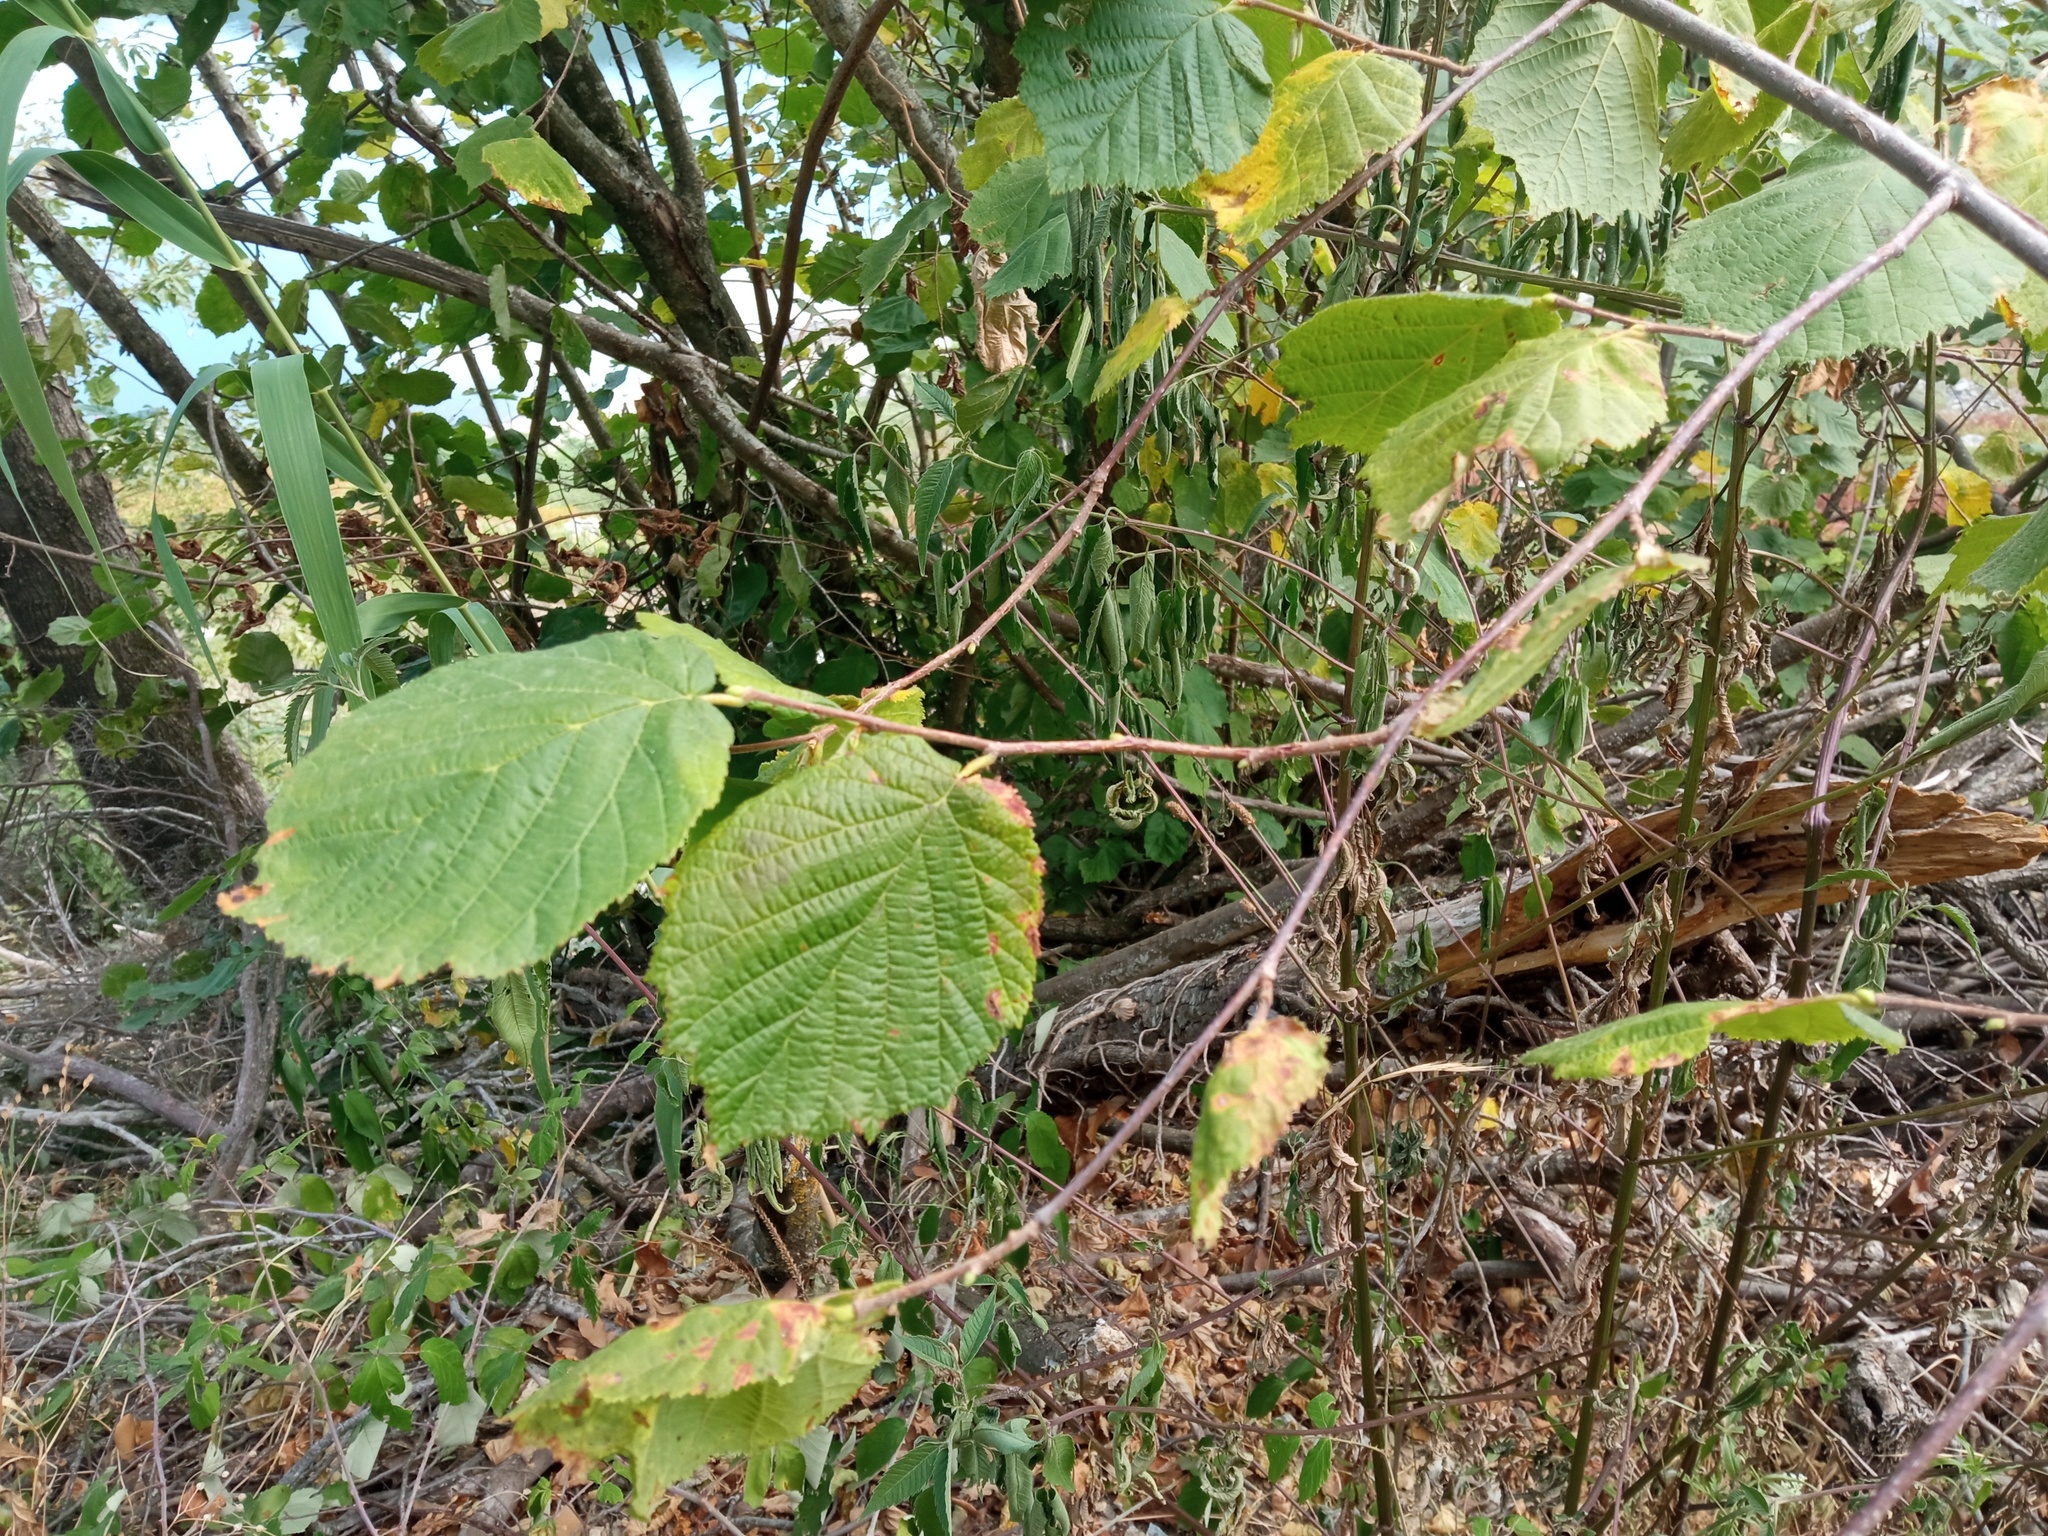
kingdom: Plantae
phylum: Tracheophyta
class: Magnoliopsida
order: Fagales
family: Betulaceae
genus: Corylus
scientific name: Corylus avellana
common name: European hazel
